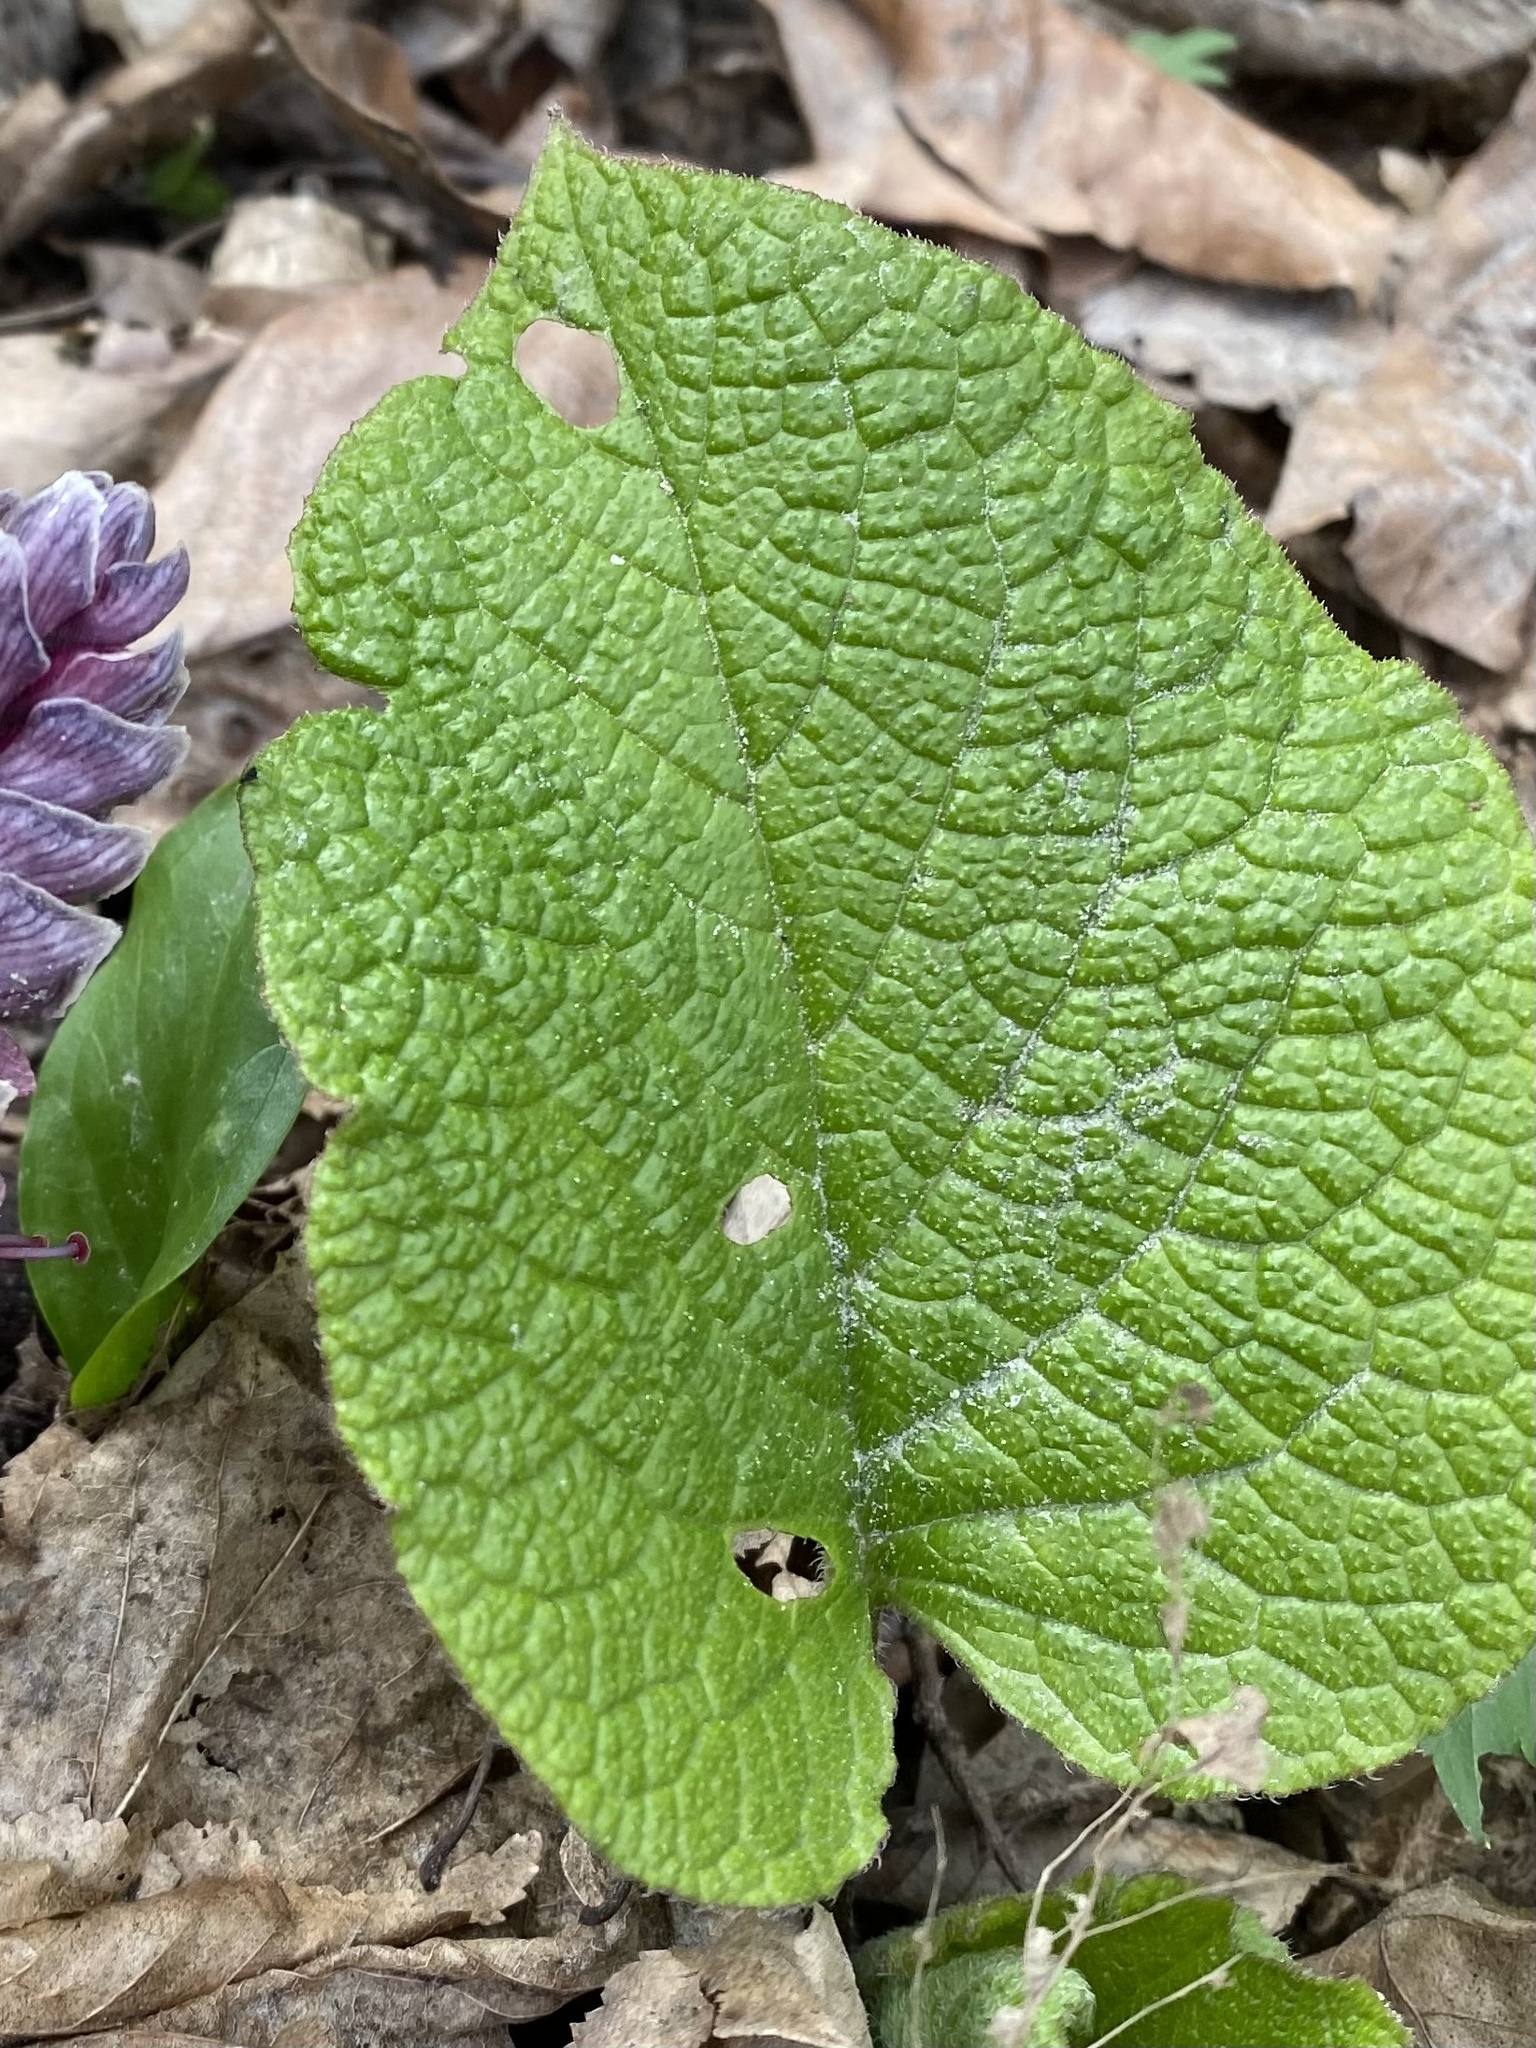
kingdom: Plantae
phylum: Tracheophyta
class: Magnoliopsida
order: Boraginales
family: Boraginaceae
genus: Trachystemon
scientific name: Trachystemon orientale
